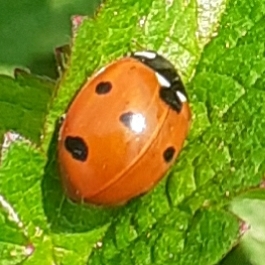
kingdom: Animalia
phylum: Arthropoda
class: Insecta
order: Coleoptera
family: Coccinellidae
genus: Coccinella
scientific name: Coccinella septempunctata
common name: Sevenspotted lady beetle
